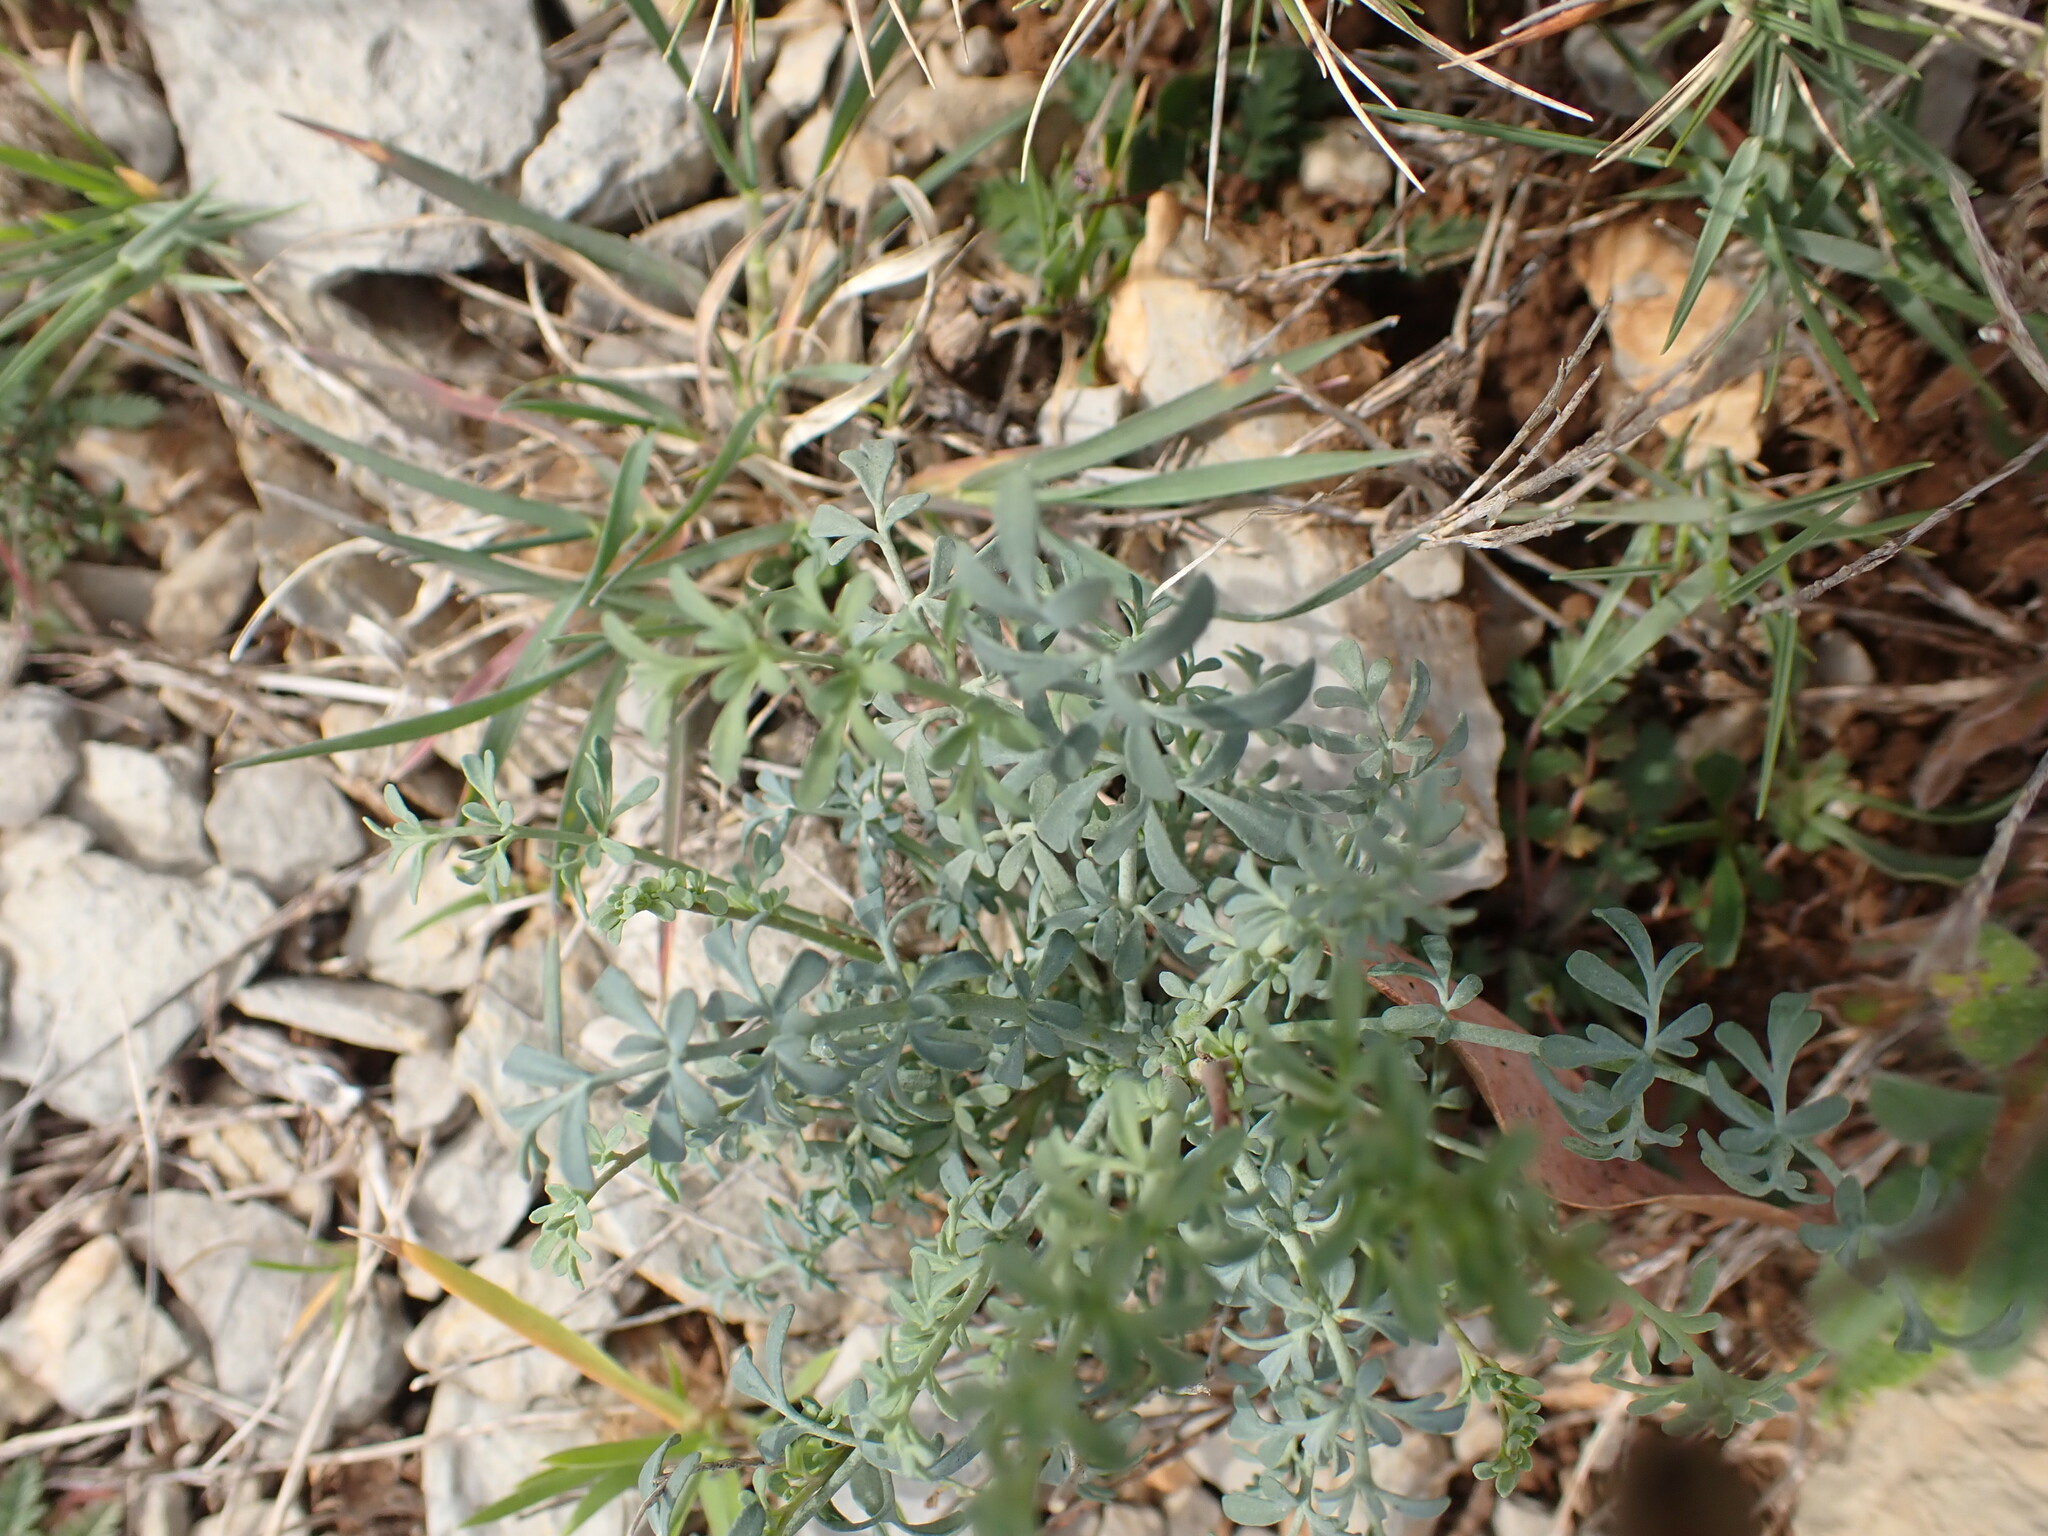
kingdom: Plantae
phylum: Tracheophyta
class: Magnoliopsida
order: Sapindales
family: Rutaceae
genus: Ruta
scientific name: Ruta angustifolia
